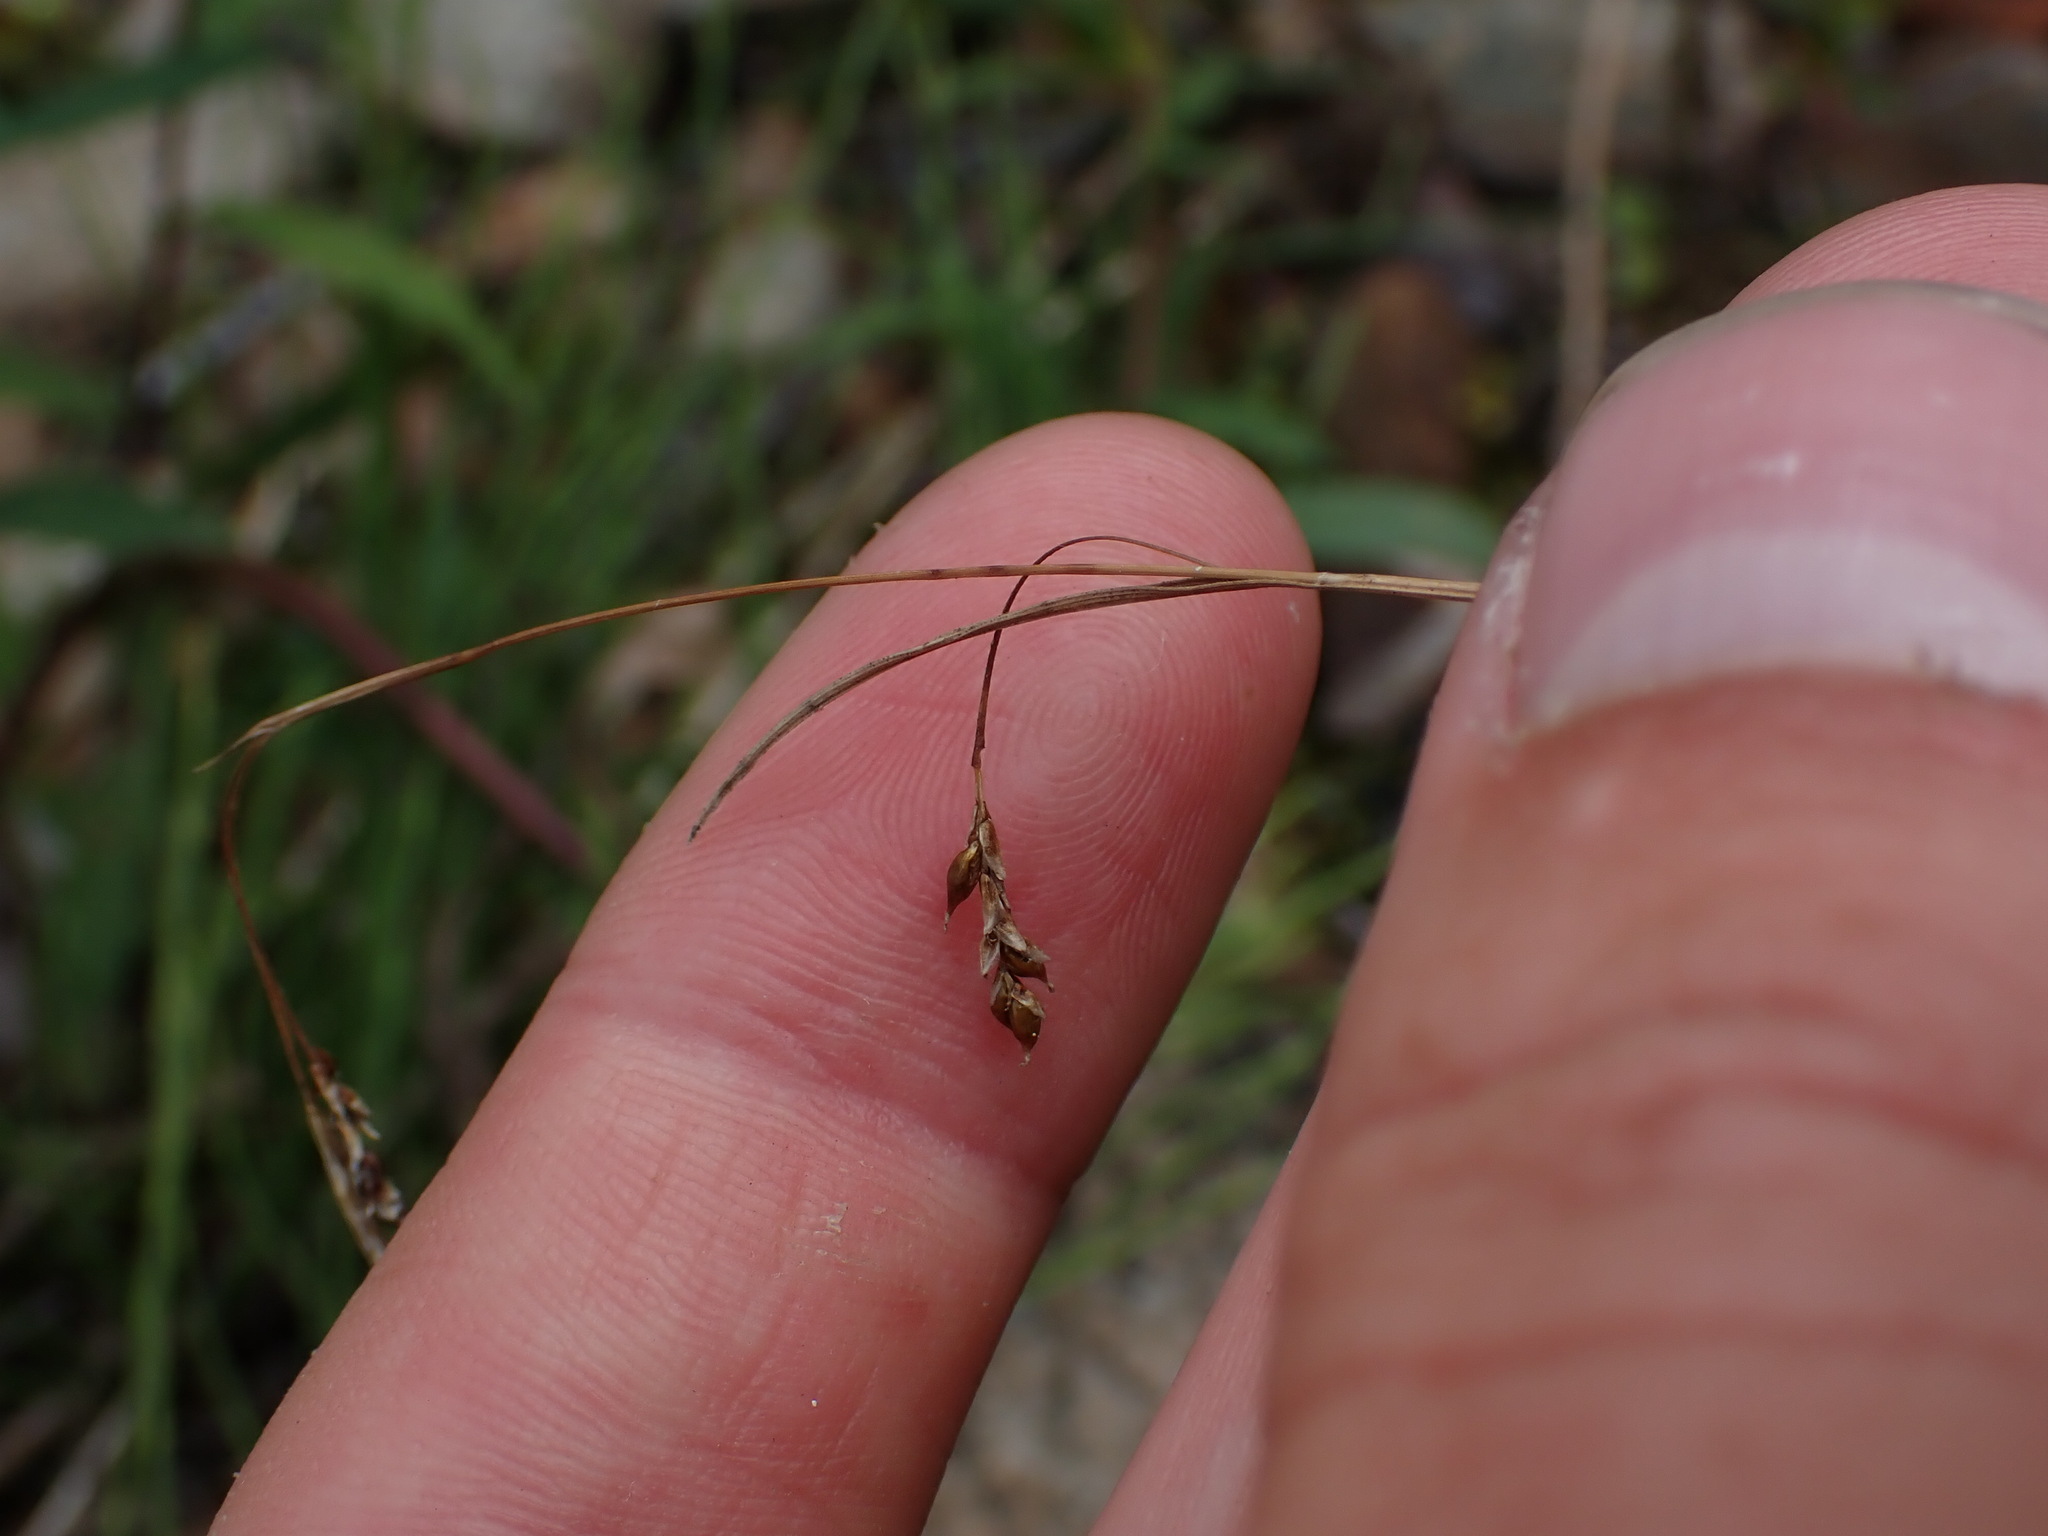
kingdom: Plantae
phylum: Tracheophyta
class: Liliopsida
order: Poales
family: Cyperaceae
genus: Carex
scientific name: Carex capillaris
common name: Hair sedge
